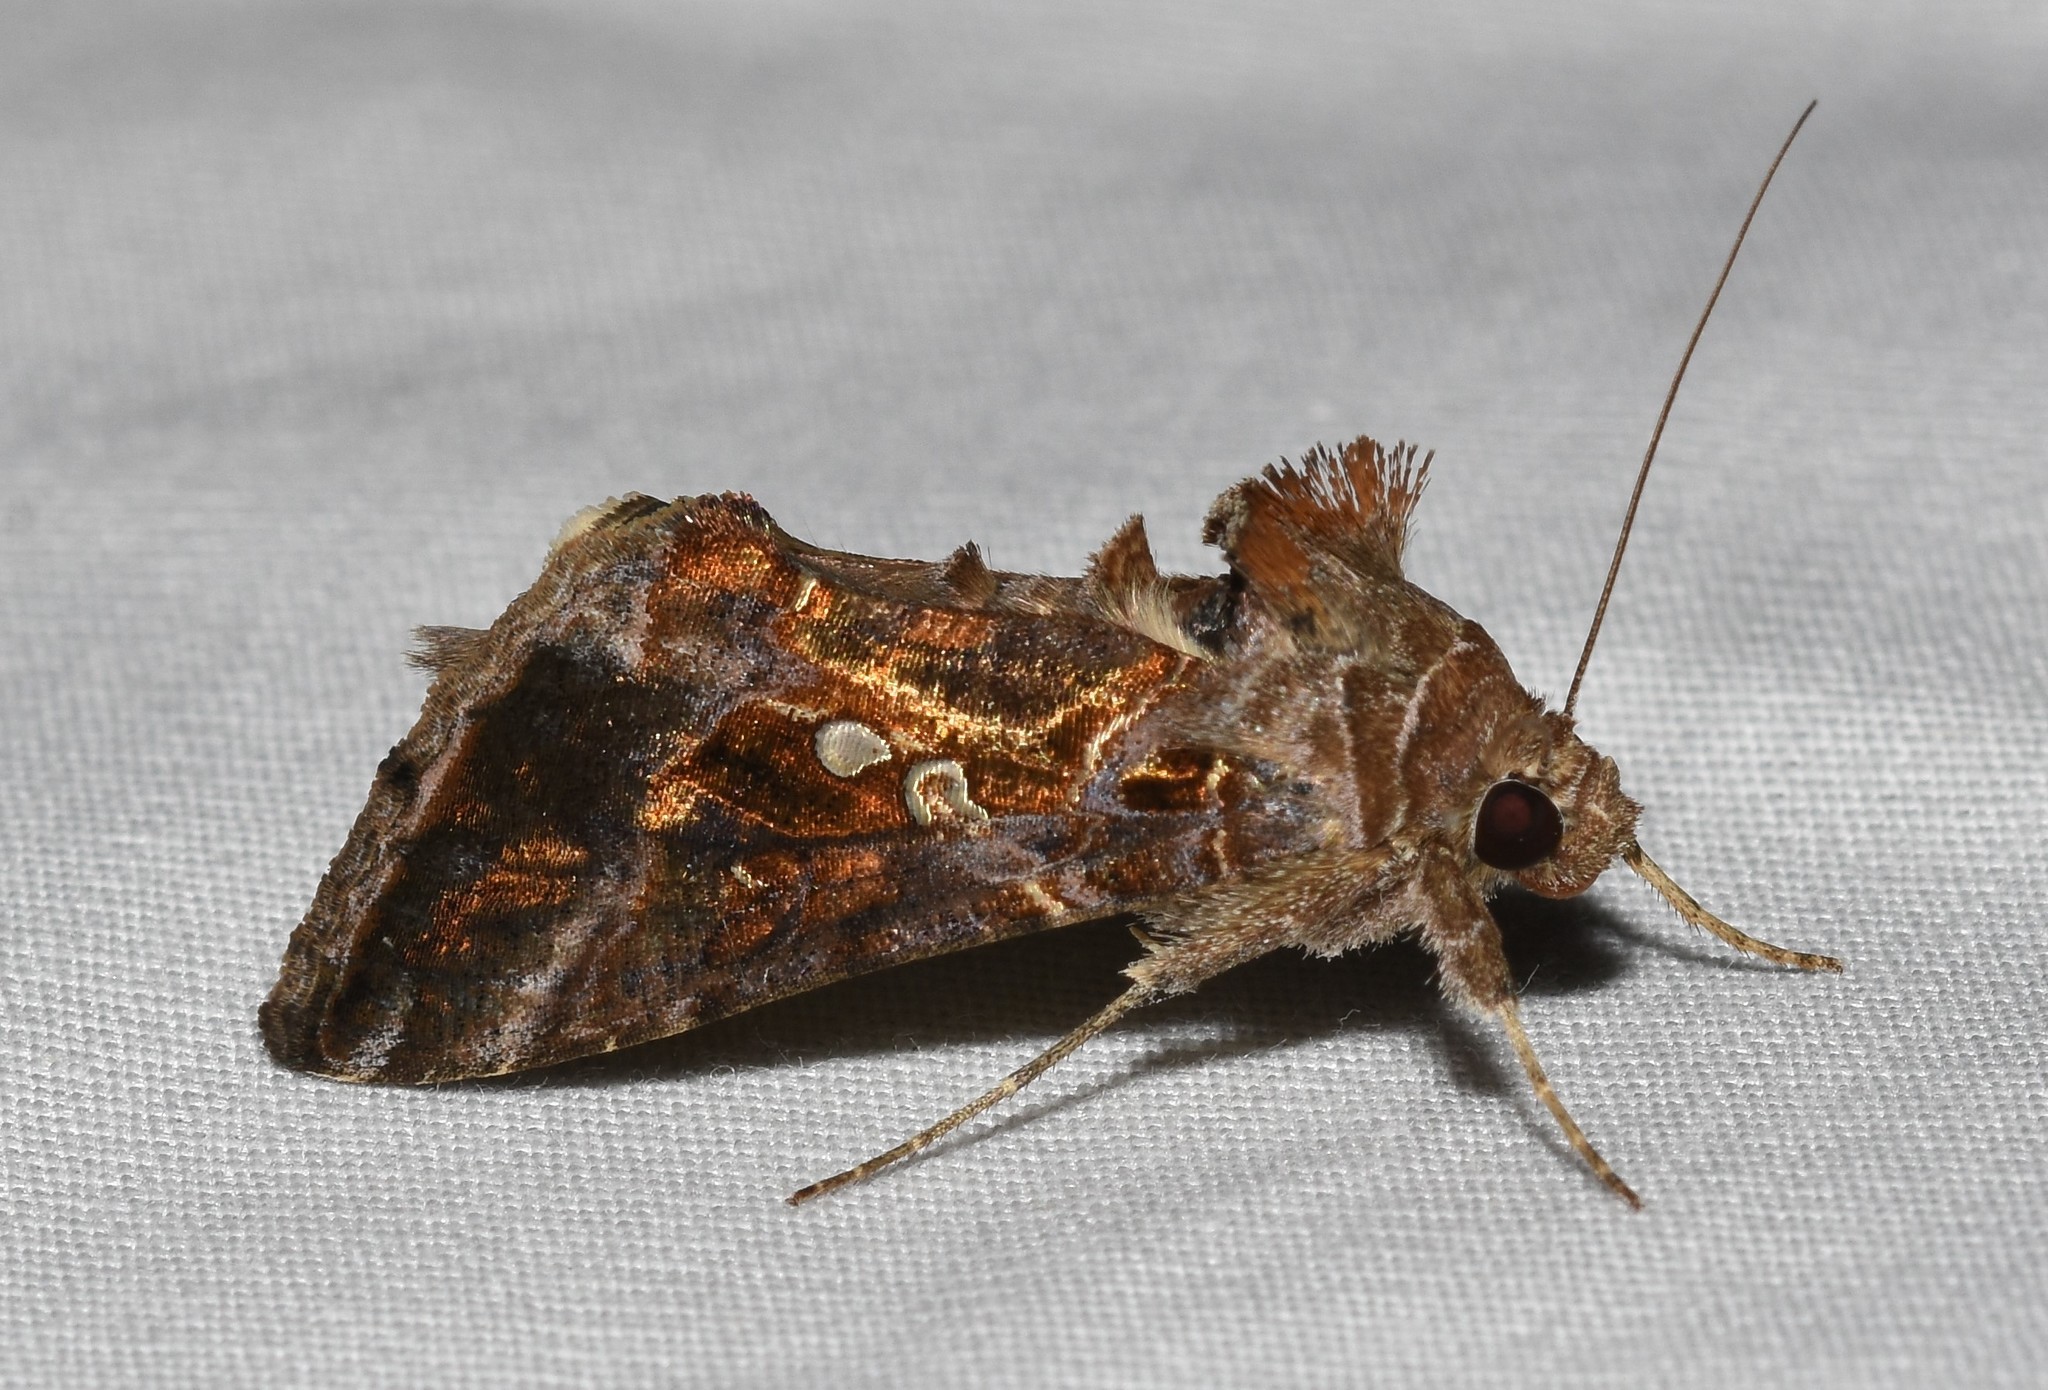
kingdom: Animalia
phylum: Arthropoda
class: Insecta
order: Lepidoptera
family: Noctuidae
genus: Chrysodeixis
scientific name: Chrysodeixis includens
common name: Cutworm moth
